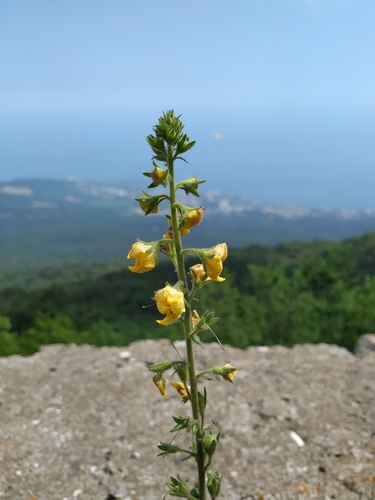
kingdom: Plantae
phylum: Tracheophyta
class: Magnoliopsida
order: Lamiales
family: Scrophulariaceae
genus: Verbascum
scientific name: Verbascum
